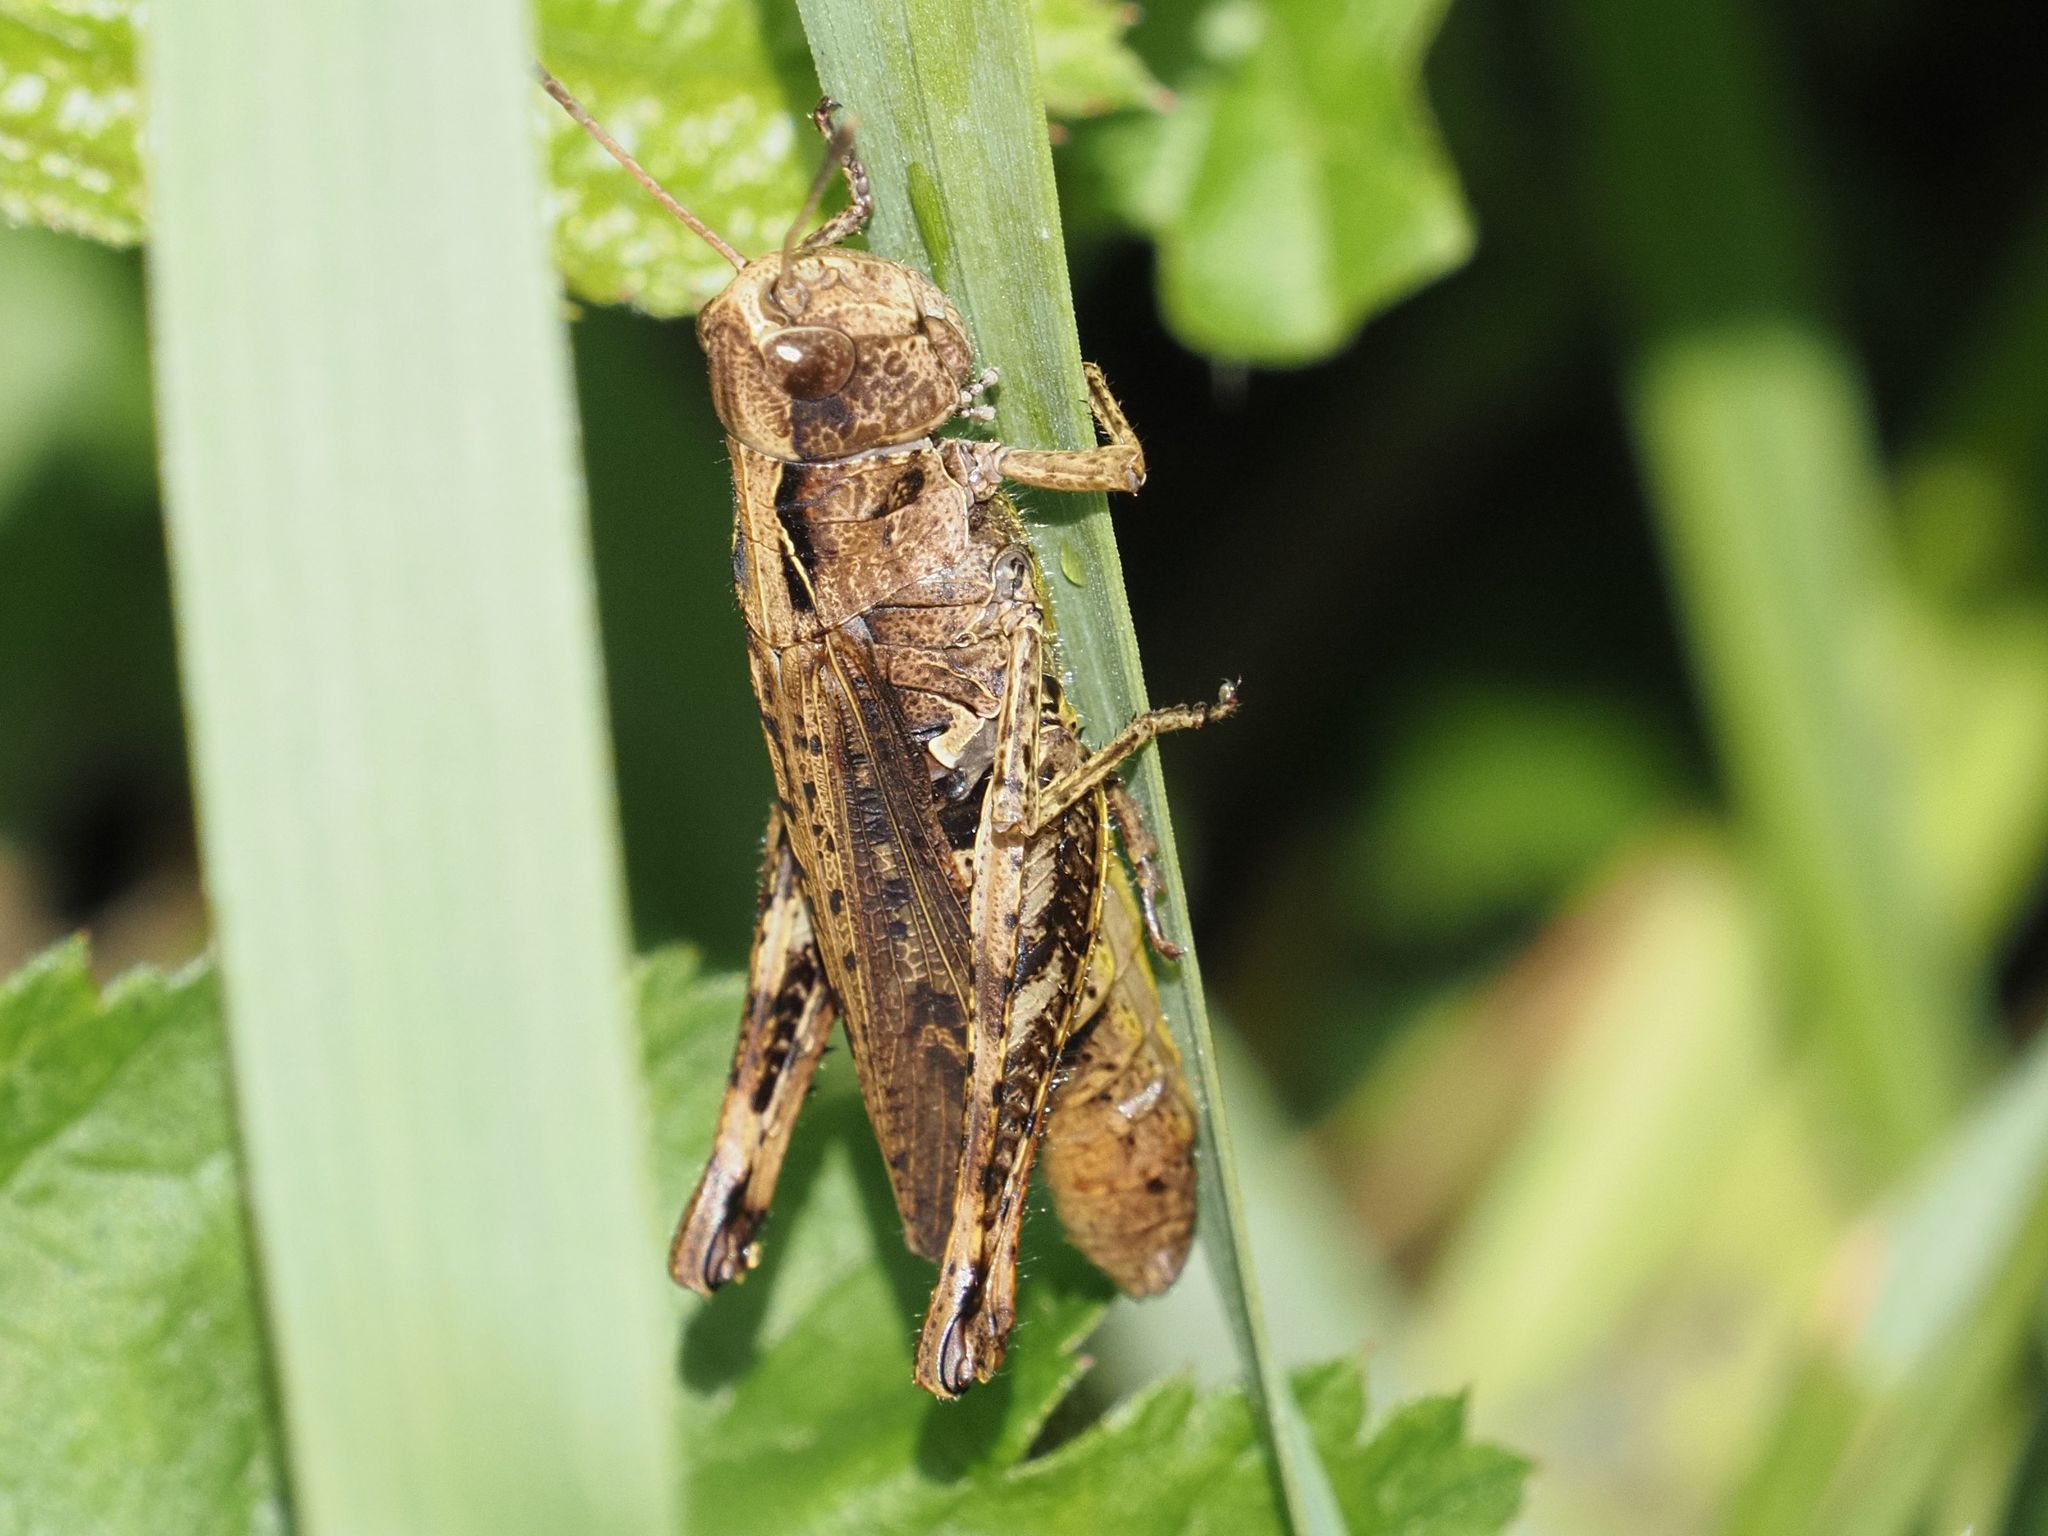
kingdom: Animalia
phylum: Arthropoda
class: Insecta
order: Orthoptera
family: Acrididae
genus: Gomphocerippus
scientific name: Gomphocerippus rufus
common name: Rufous grasshopper
